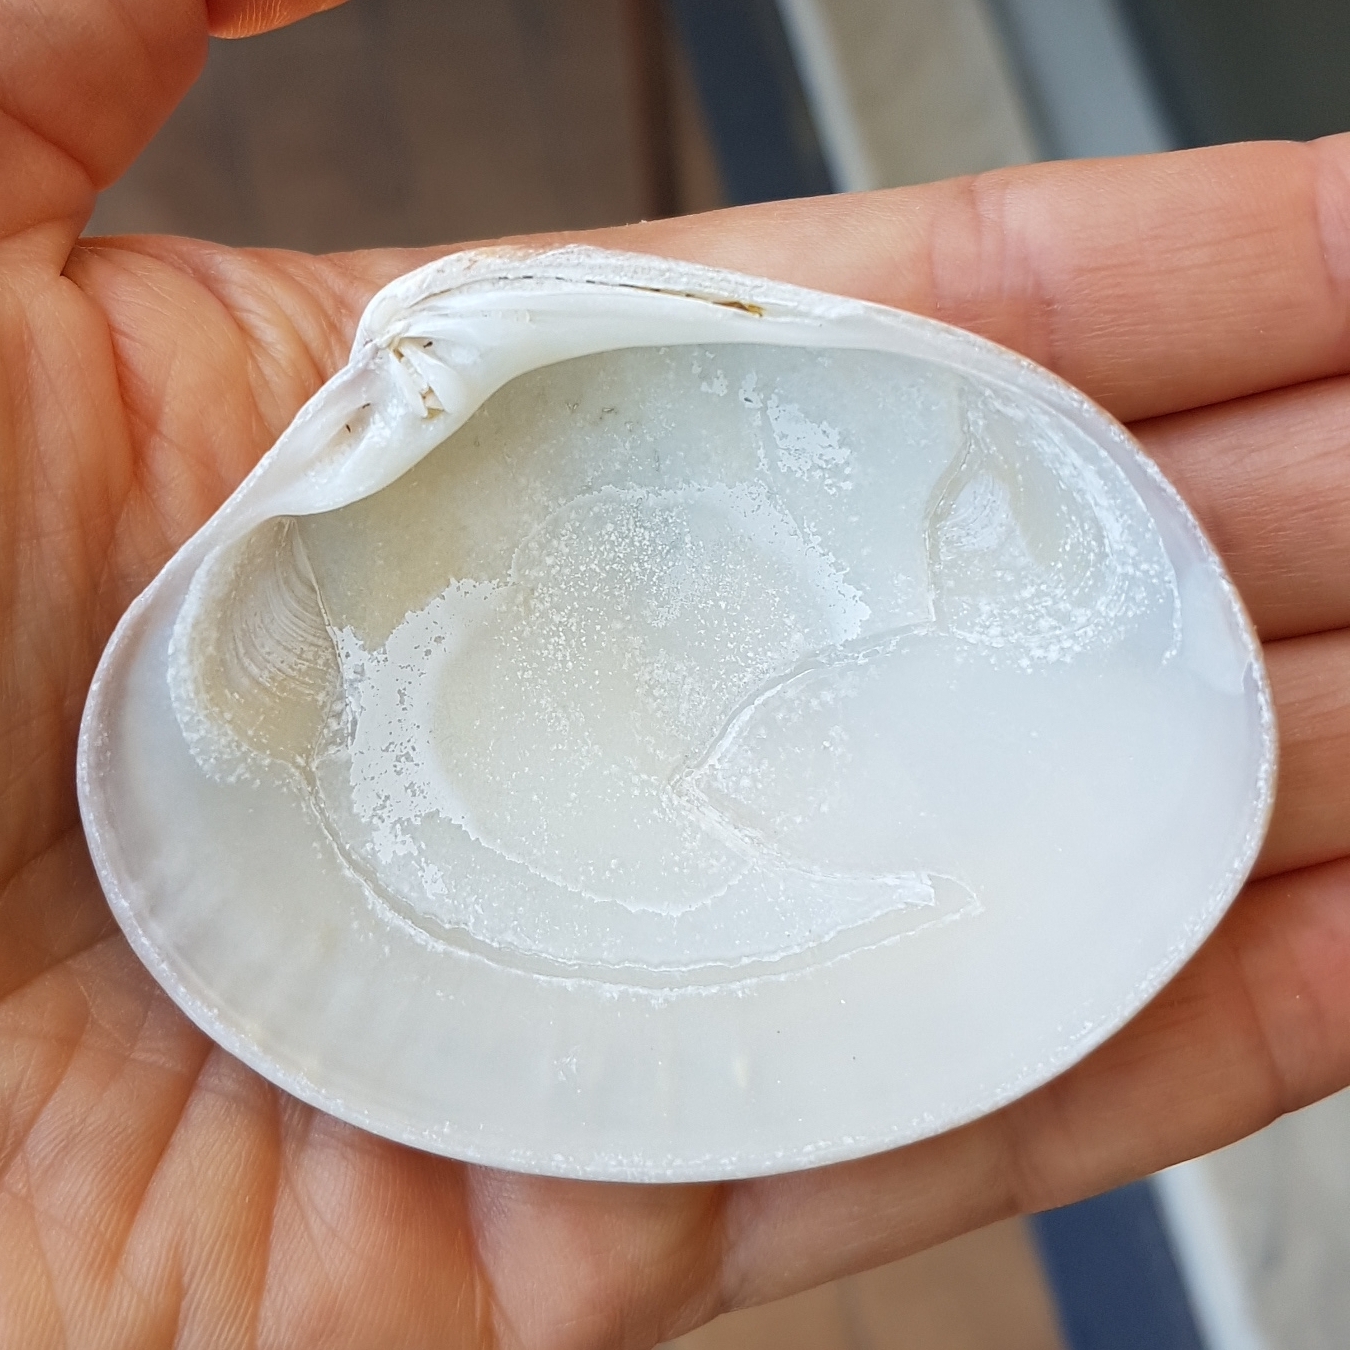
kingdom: Animalia
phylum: Mollusca
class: Bivalvia
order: Venerida
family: Veneridae
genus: Callista
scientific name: Callista chione
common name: Brown venus
